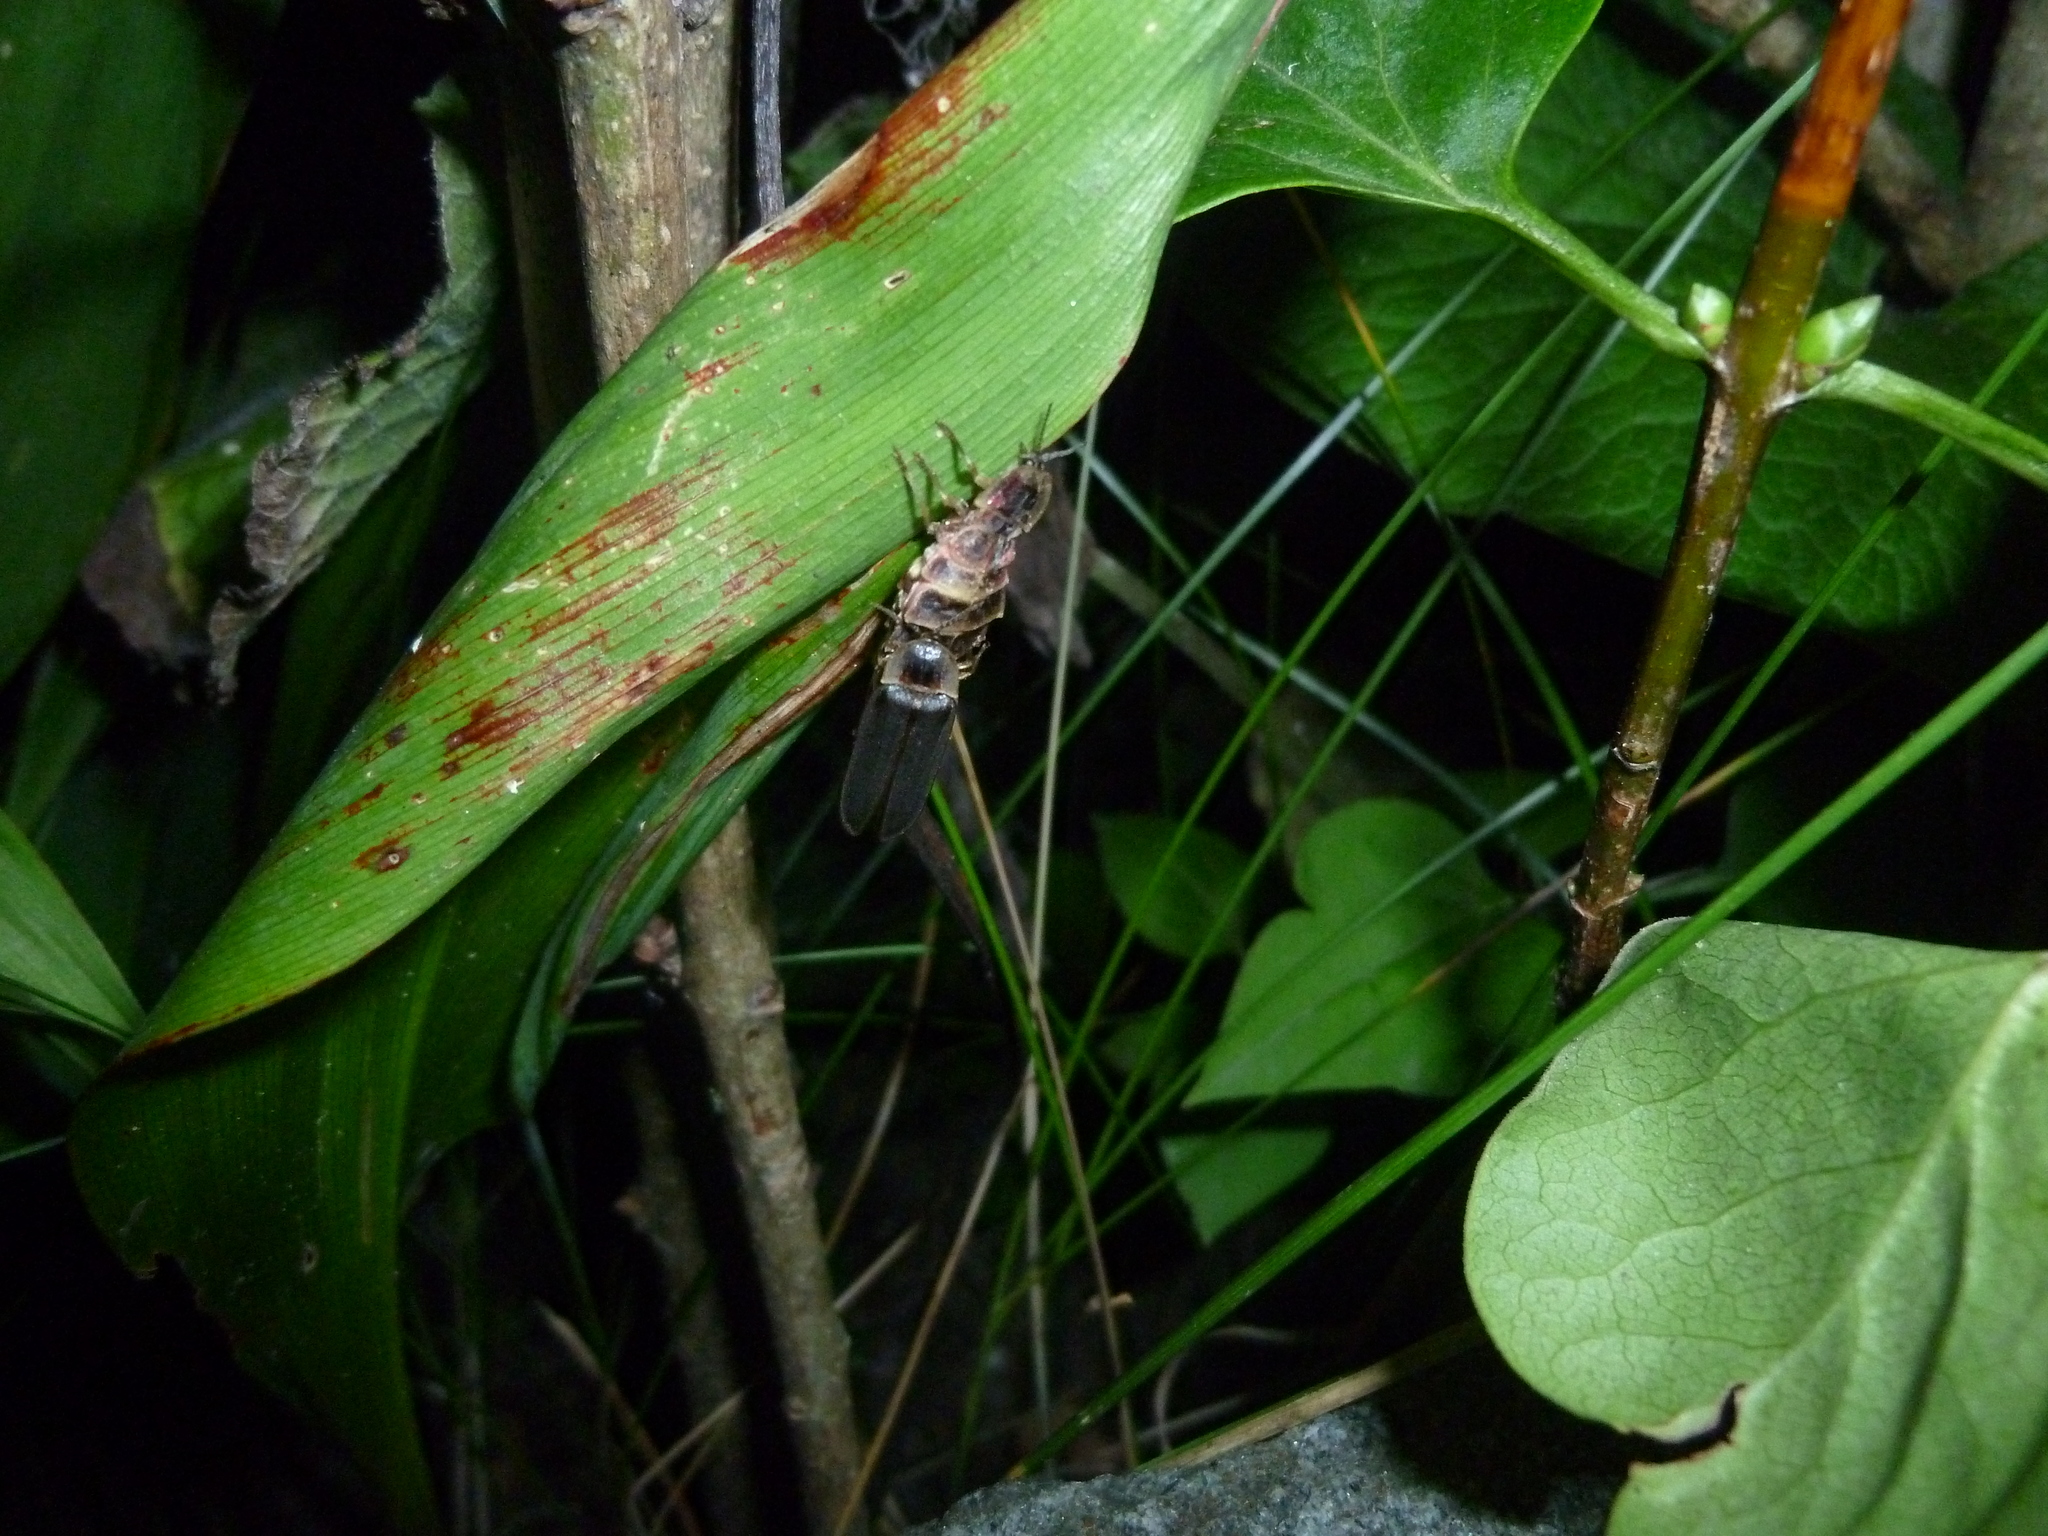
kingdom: Animalia
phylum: Arthropoda
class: Insecta
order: Coleoptera
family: Lampyridae
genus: Lampyris
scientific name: Lampyris noctiluca
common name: Glow-worm
